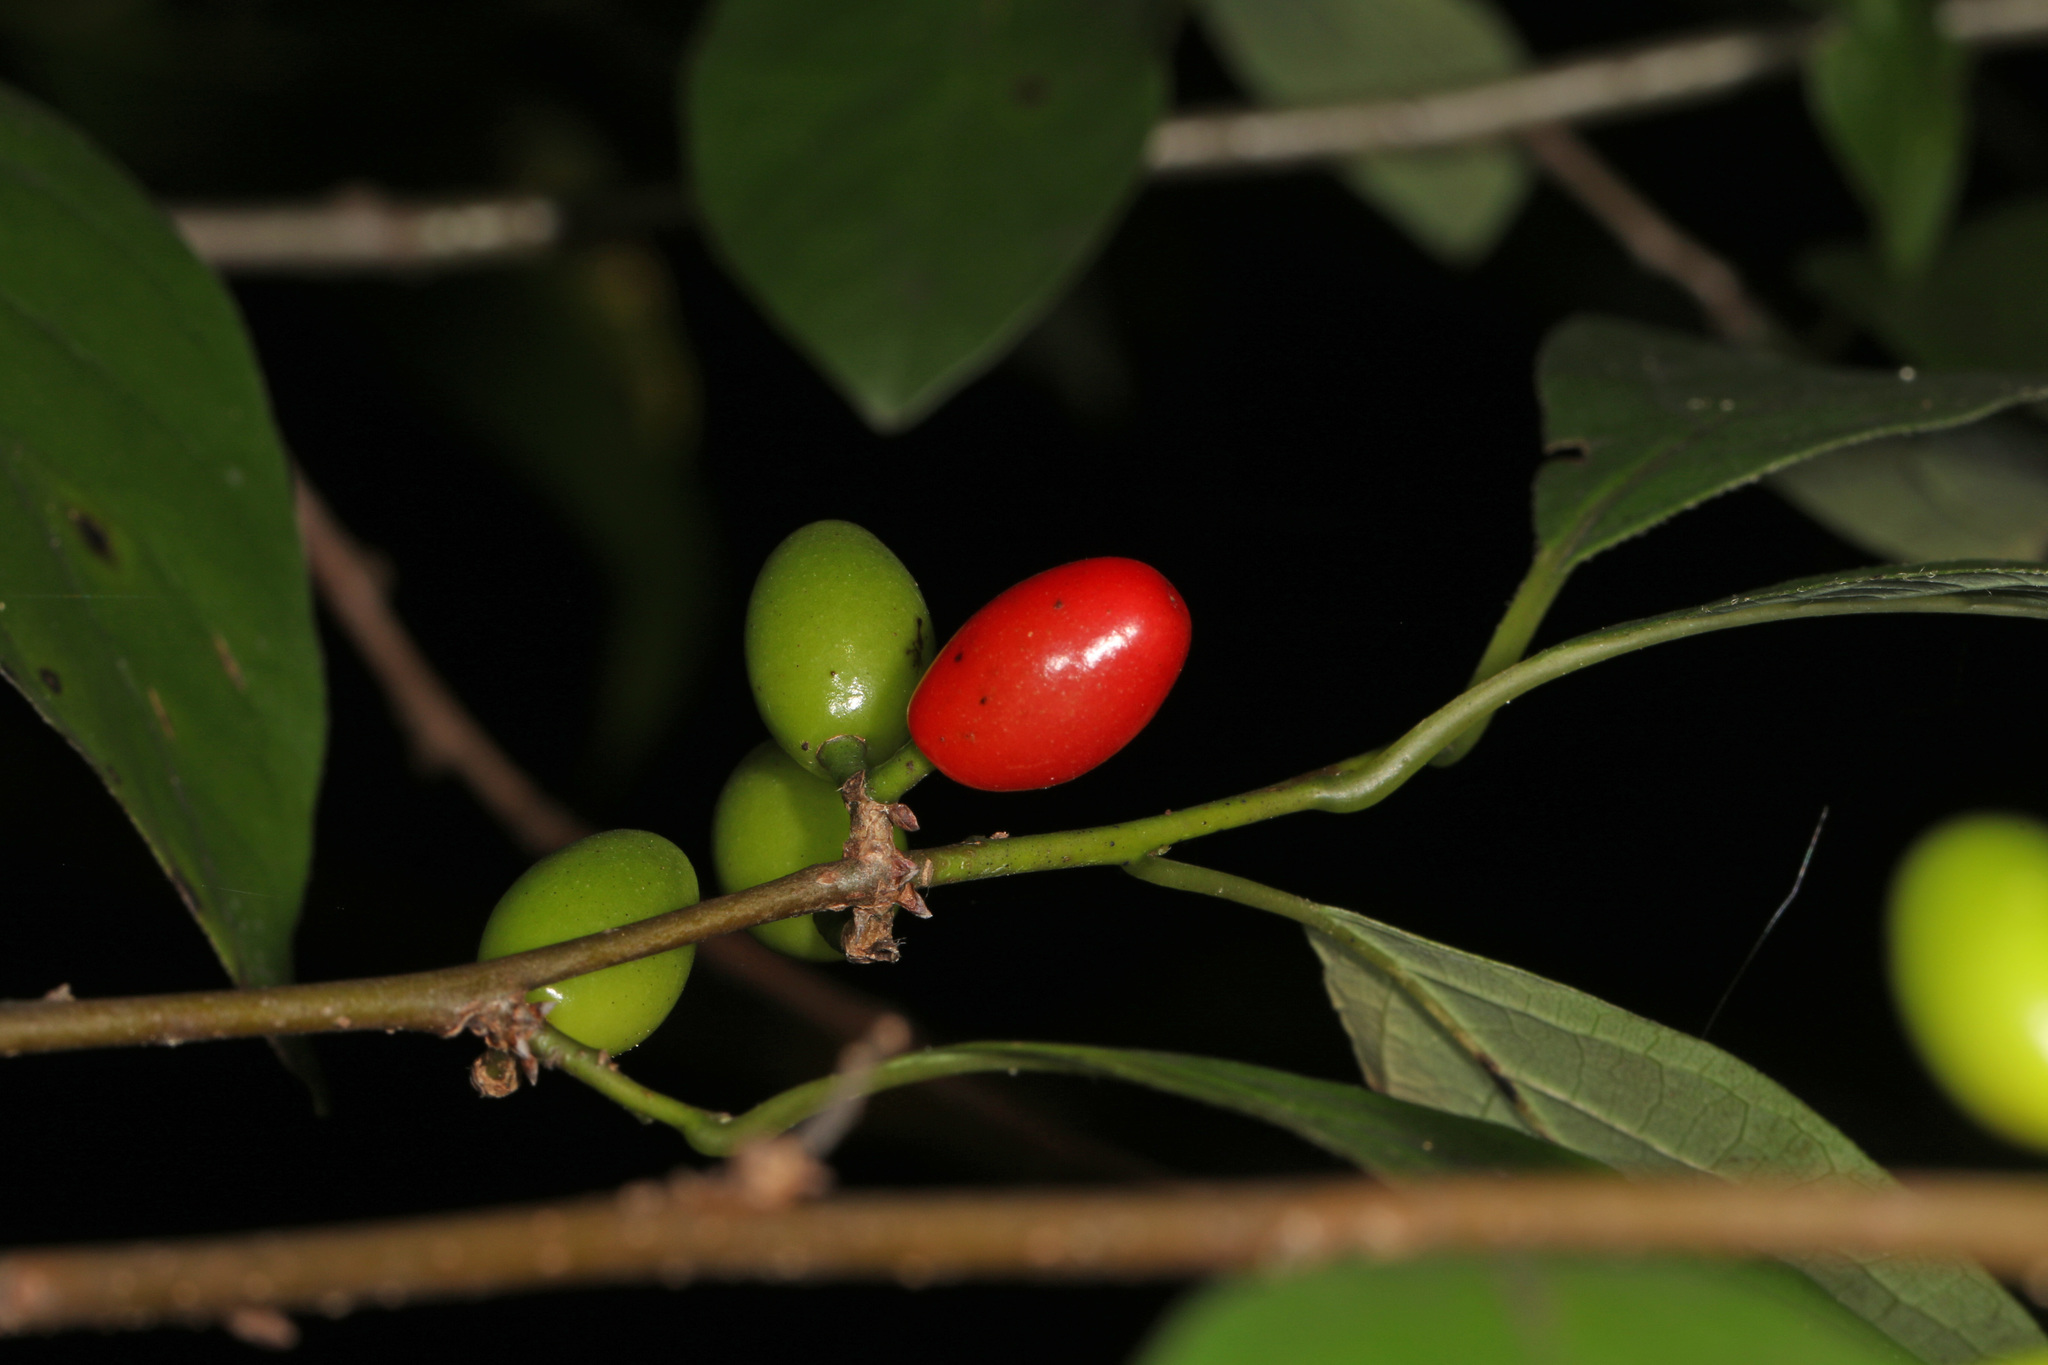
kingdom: Plantae
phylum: Tracheophyta
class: Magnoliopsida
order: Laurales
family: Lauraceae
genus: Lindera
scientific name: Lindera benzoin
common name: Spicebush
